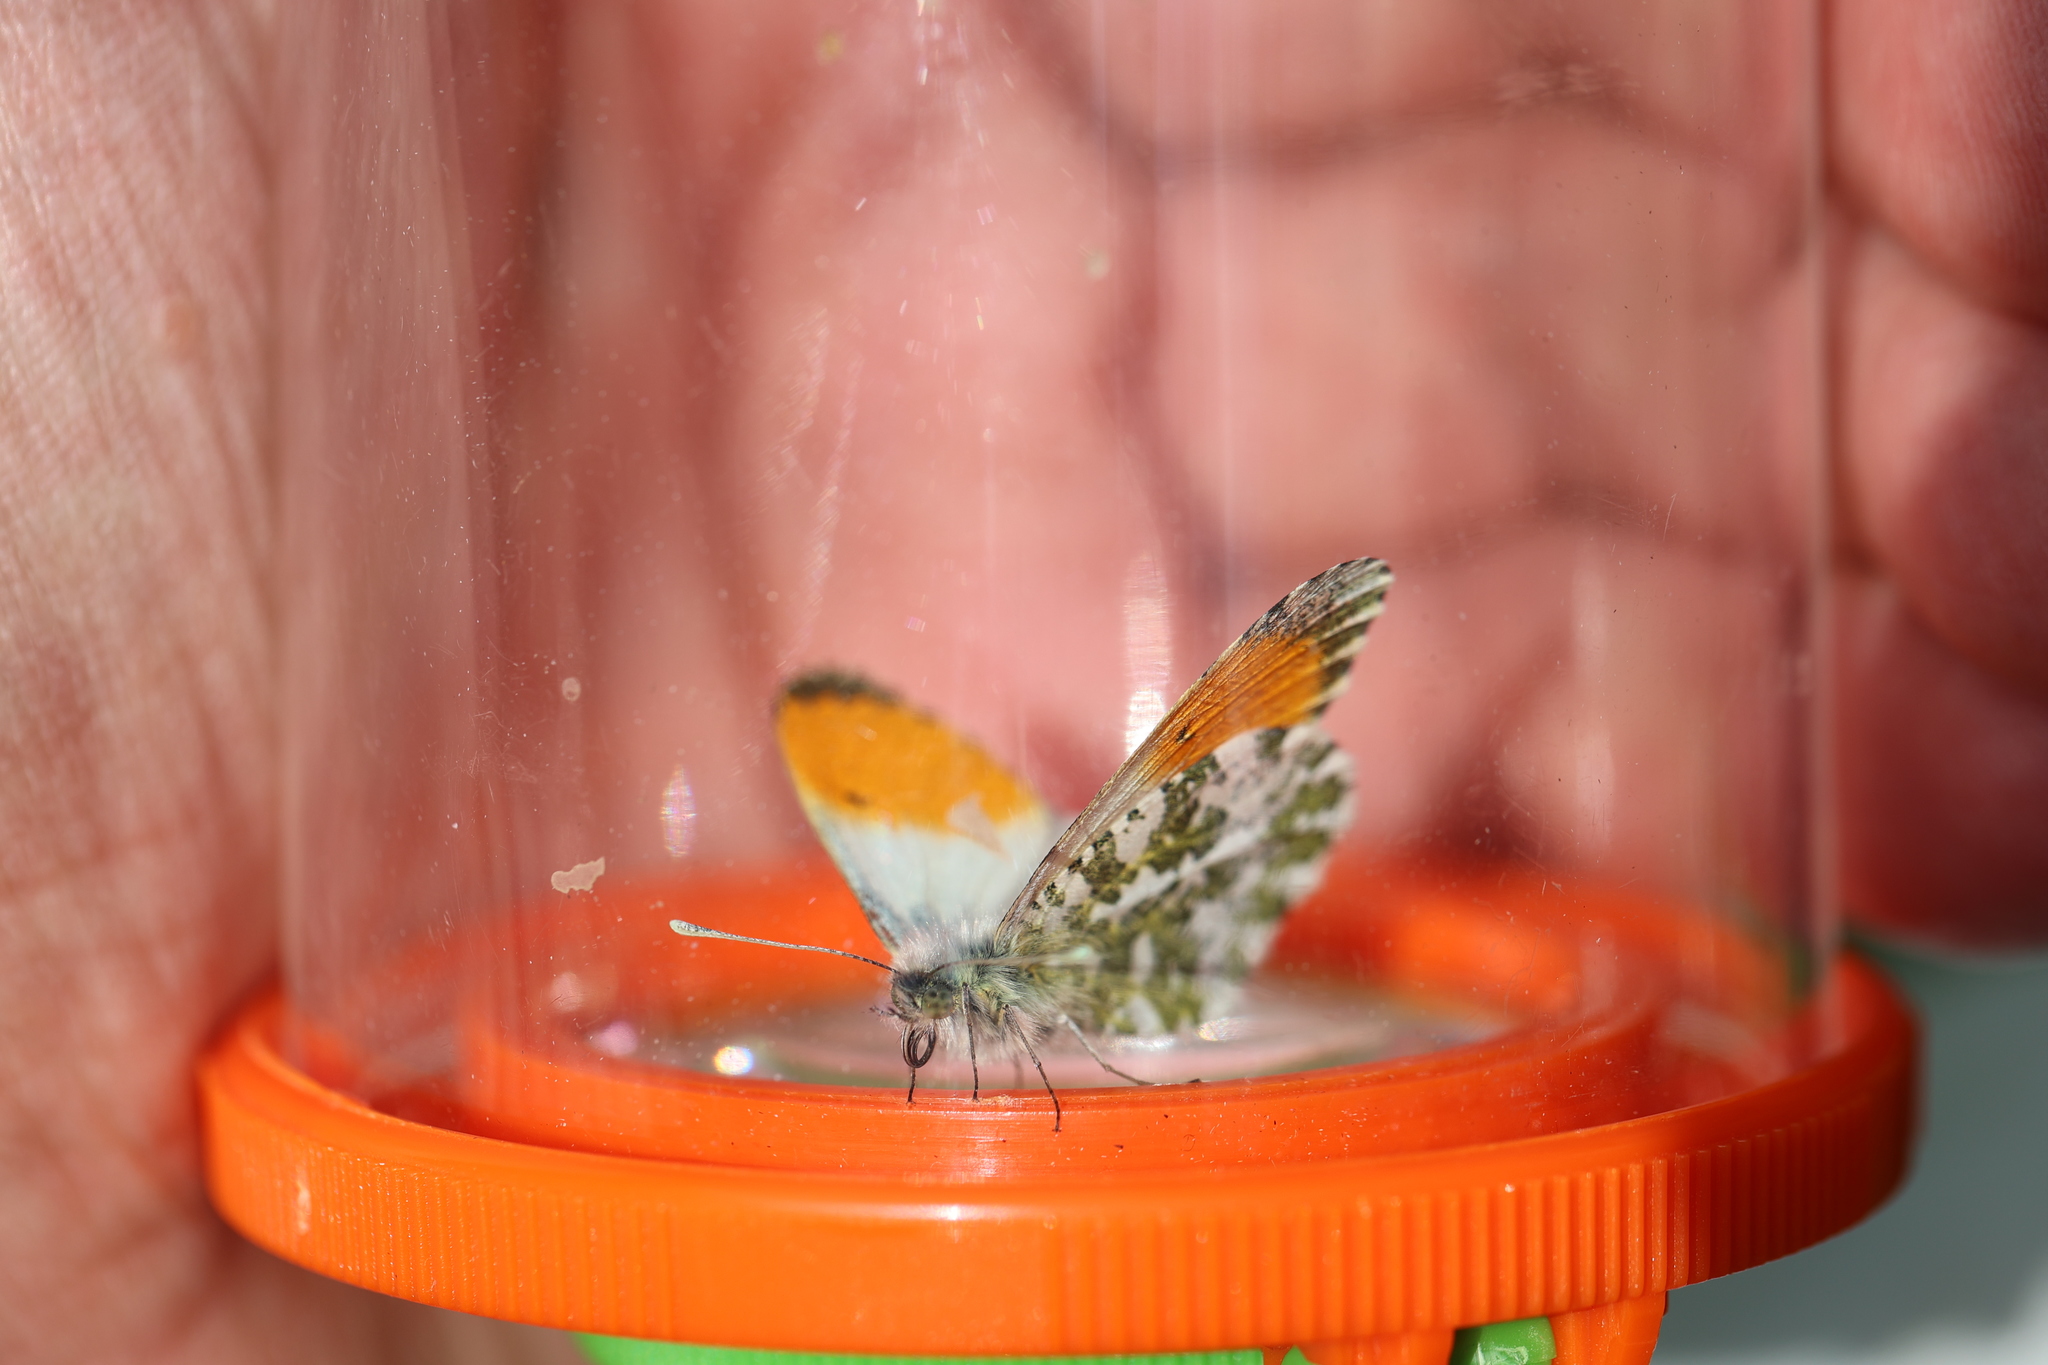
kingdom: Animalia
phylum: Arthropoda
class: Insecta
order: Lepidoptera
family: Pieridae
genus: Anthocharis
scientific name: Anthocharis cardamines
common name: Orange-tip
